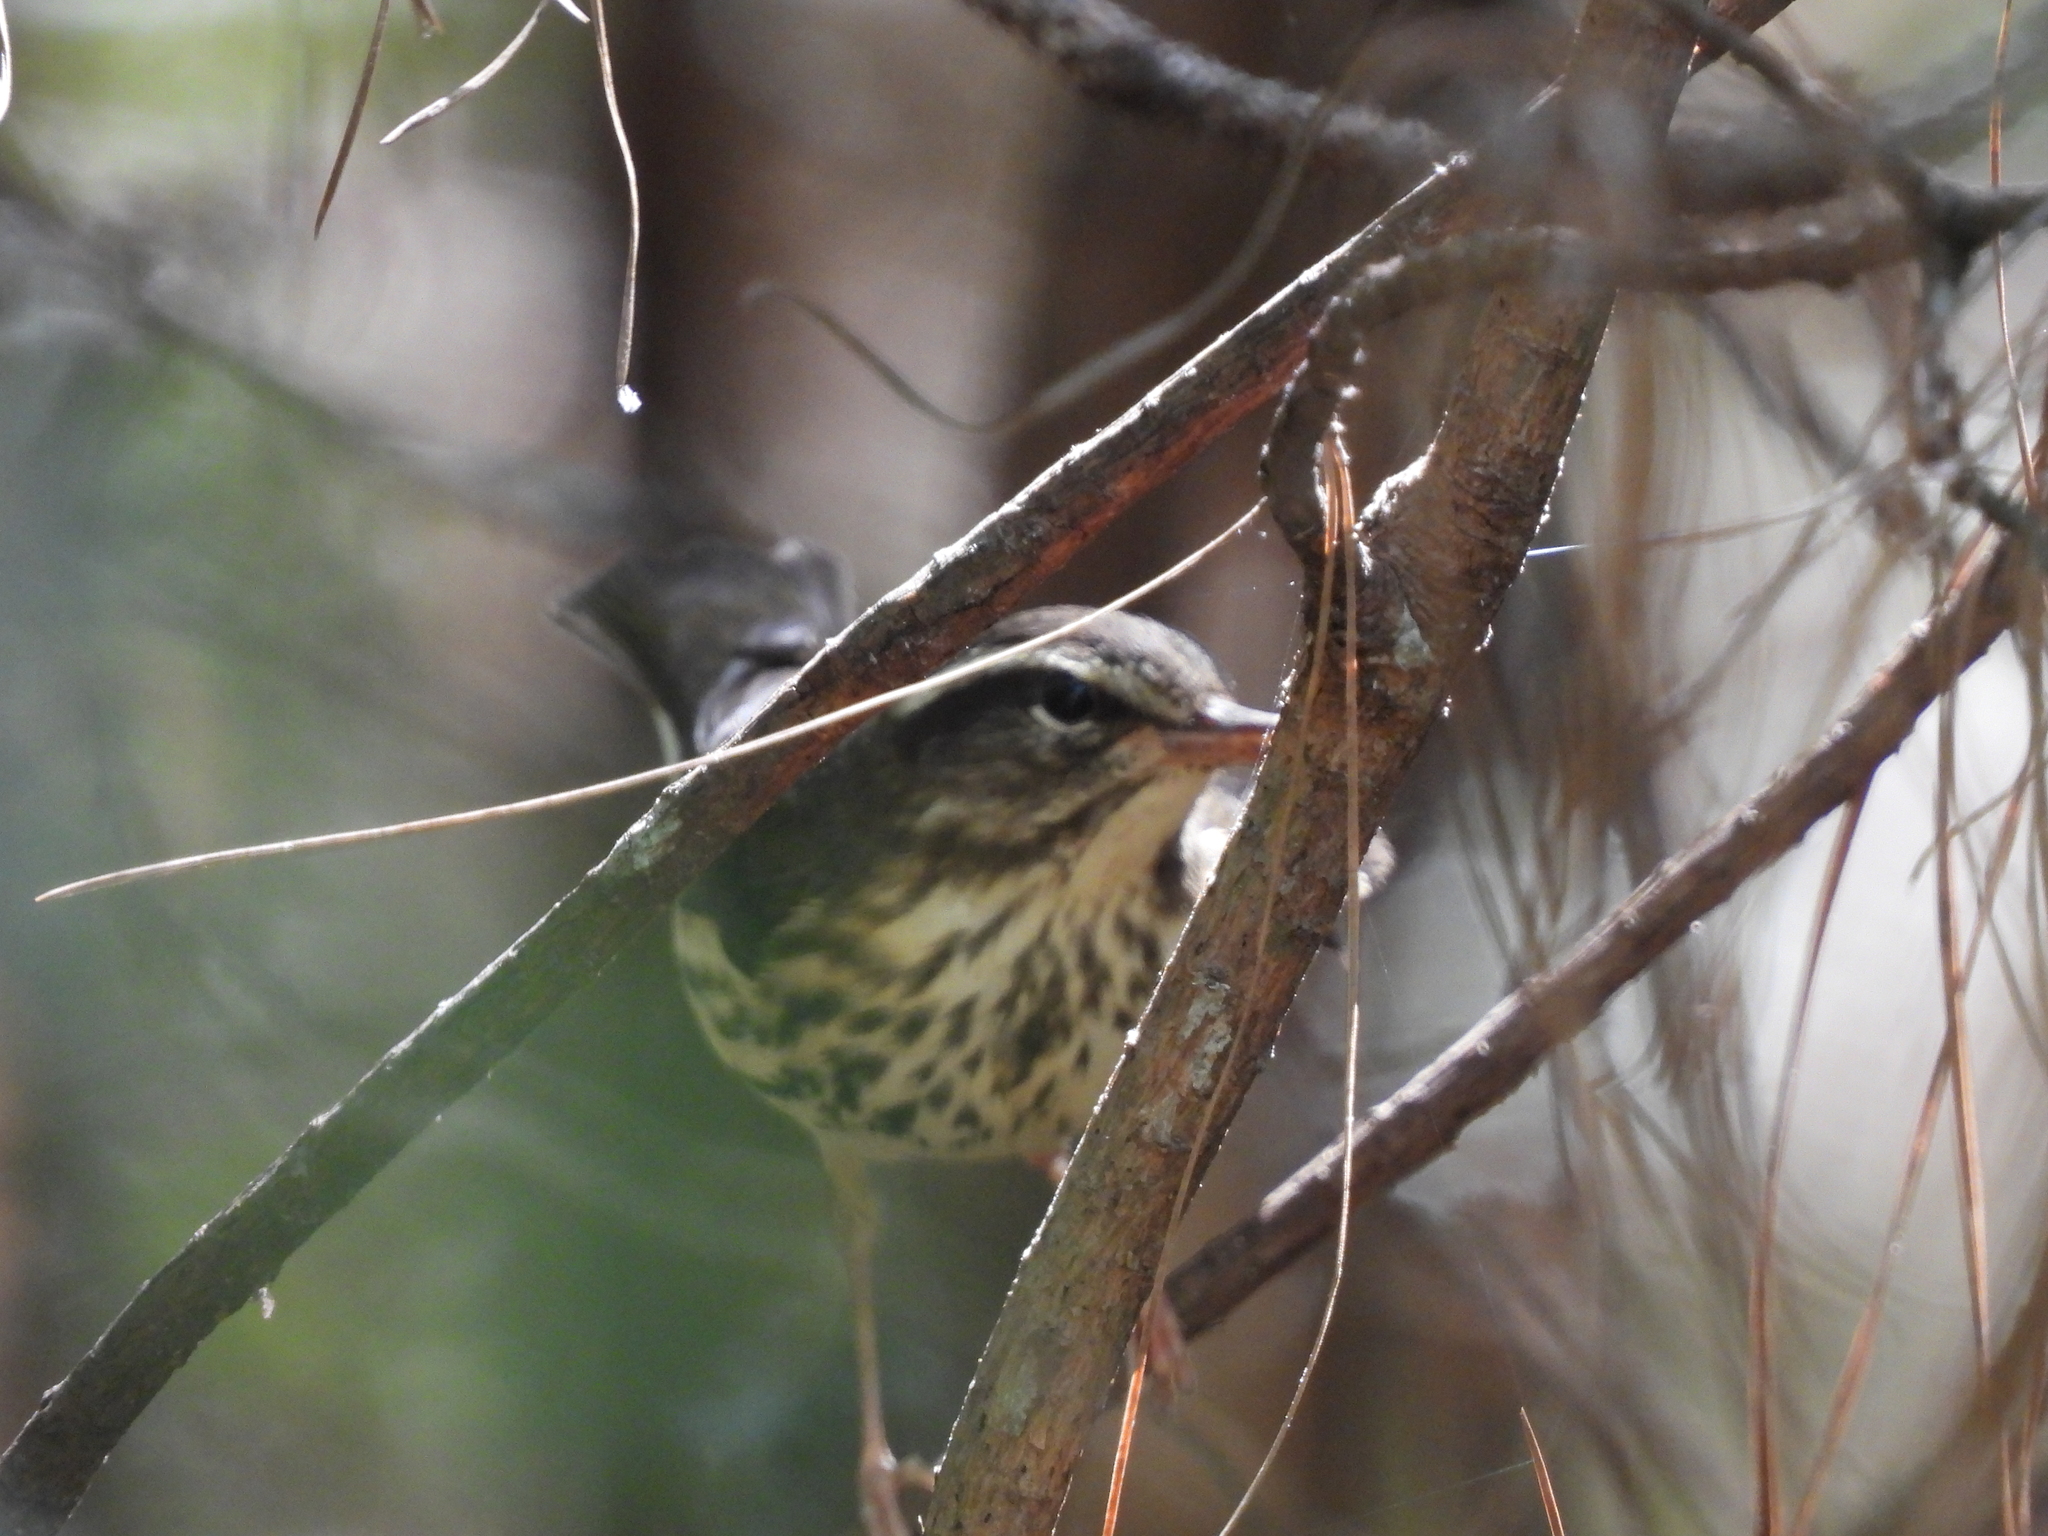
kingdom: Animalia
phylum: Chordata
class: Aves
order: Passeriformes
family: Parulidae
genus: Parkesia
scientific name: Parkesia motacilla
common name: Louisiana waterthrush
